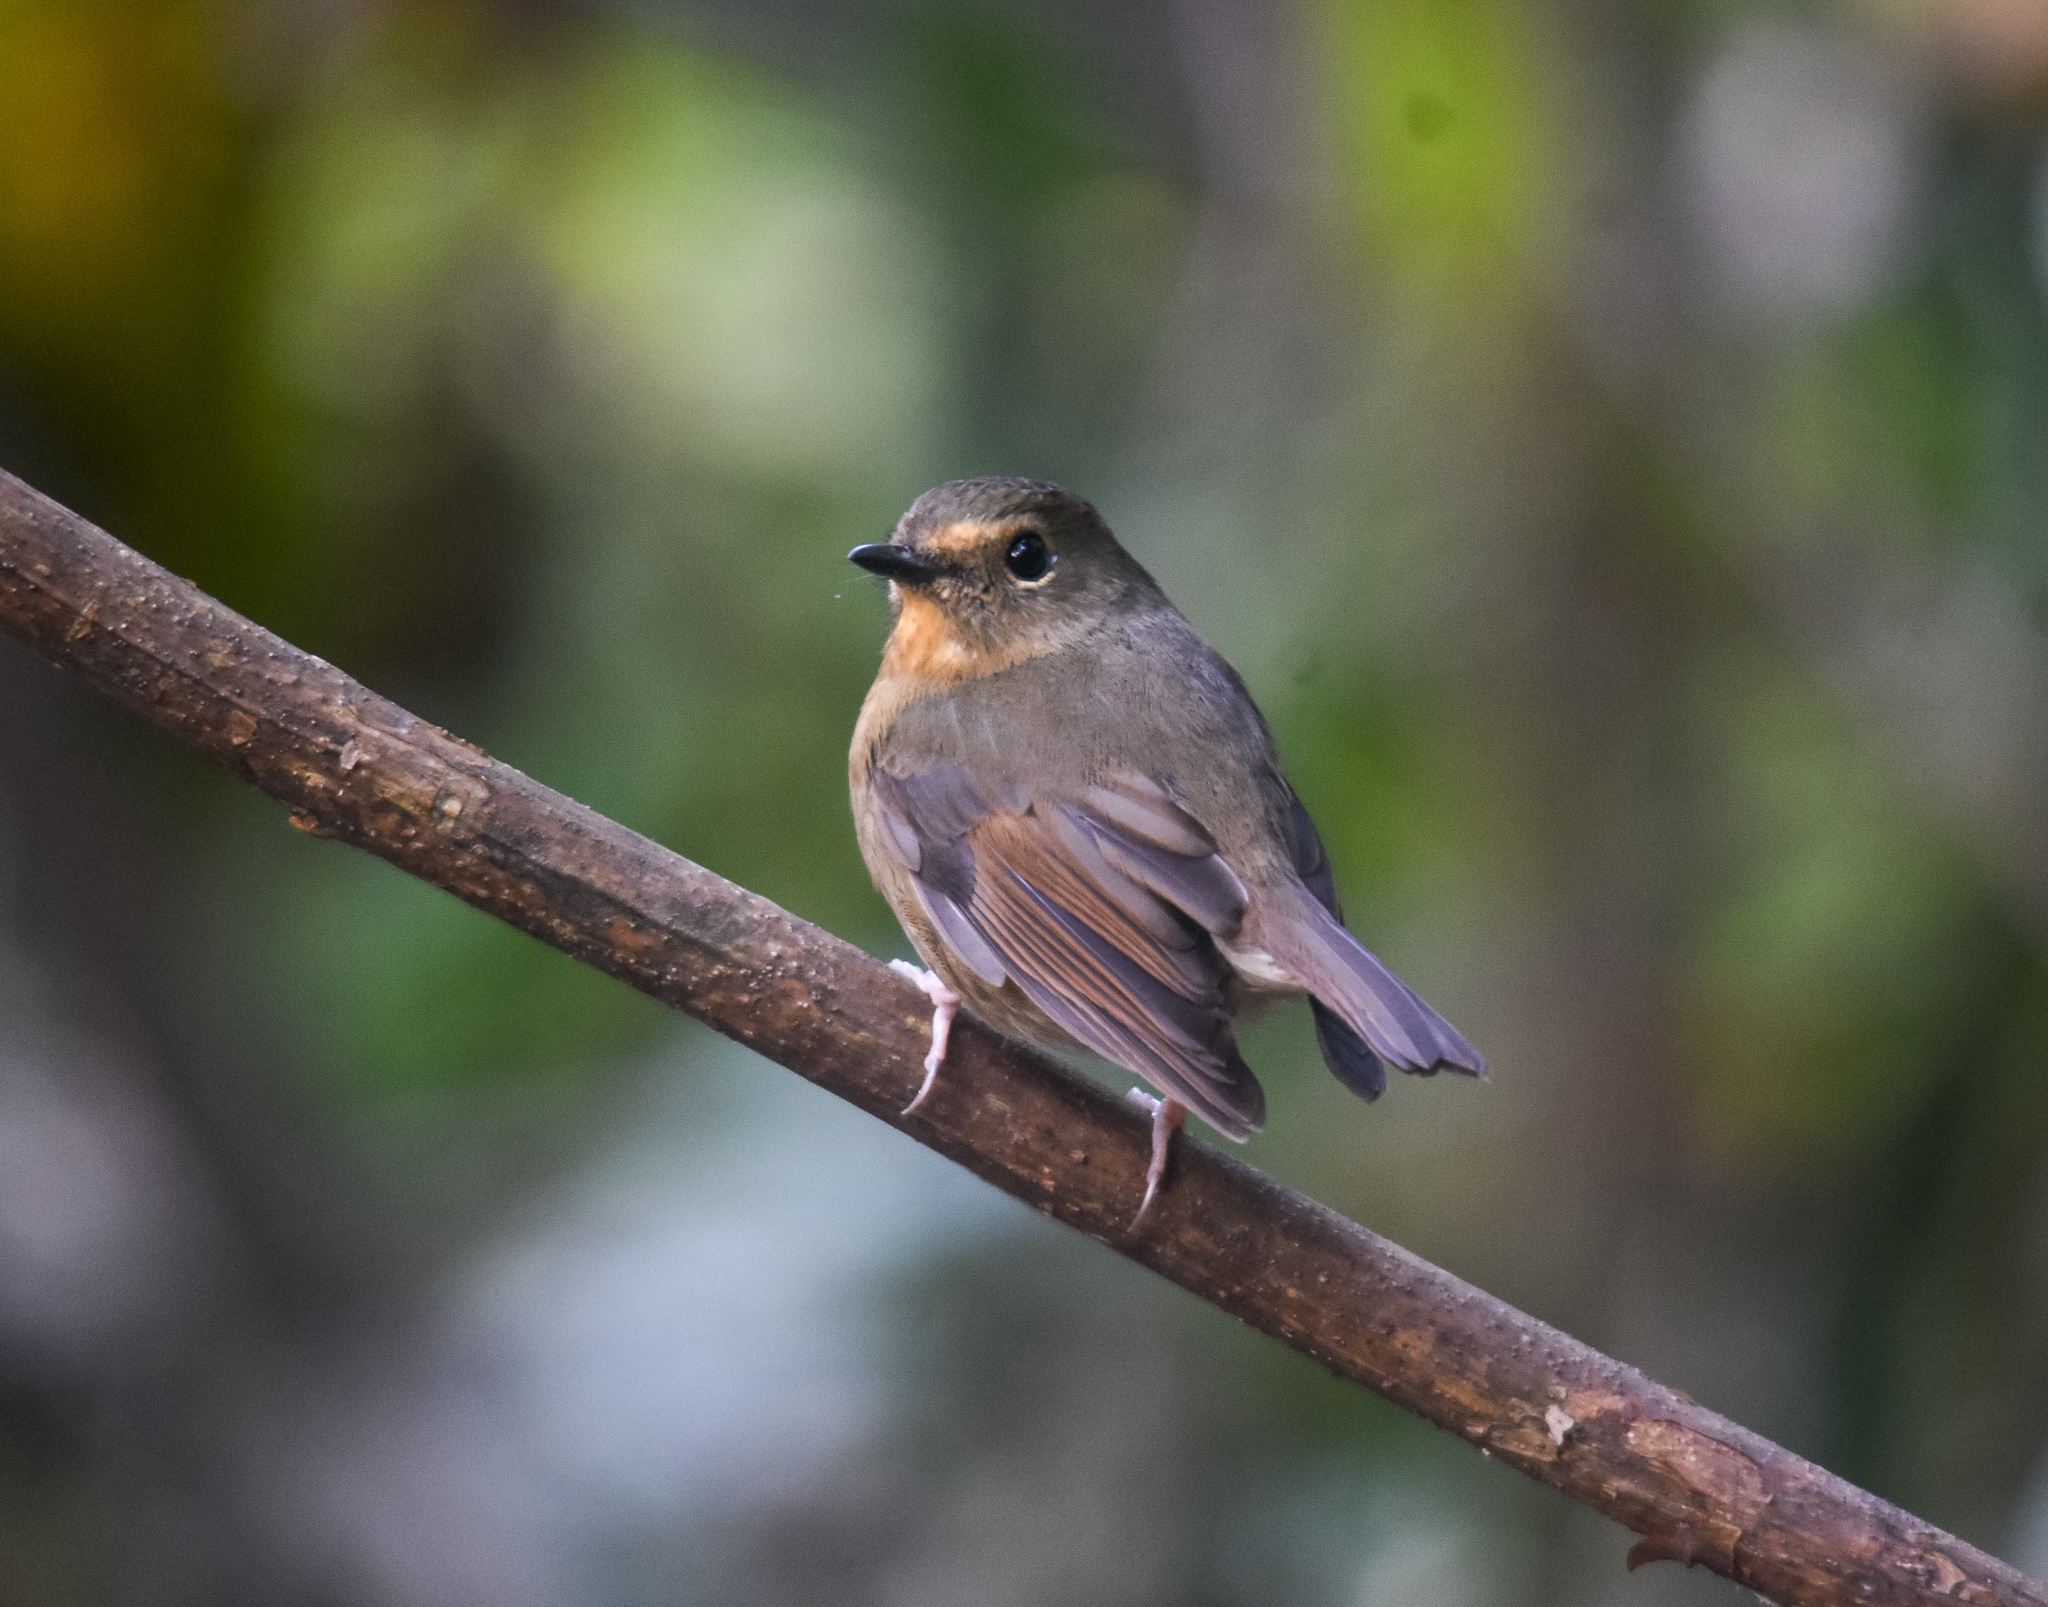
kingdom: Animalia
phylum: Chordata
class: Aves
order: Passeriformes
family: Muscicapidae
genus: Ficedula
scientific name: Ficedula hyperythra
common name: Snowy-browed flycatcher
